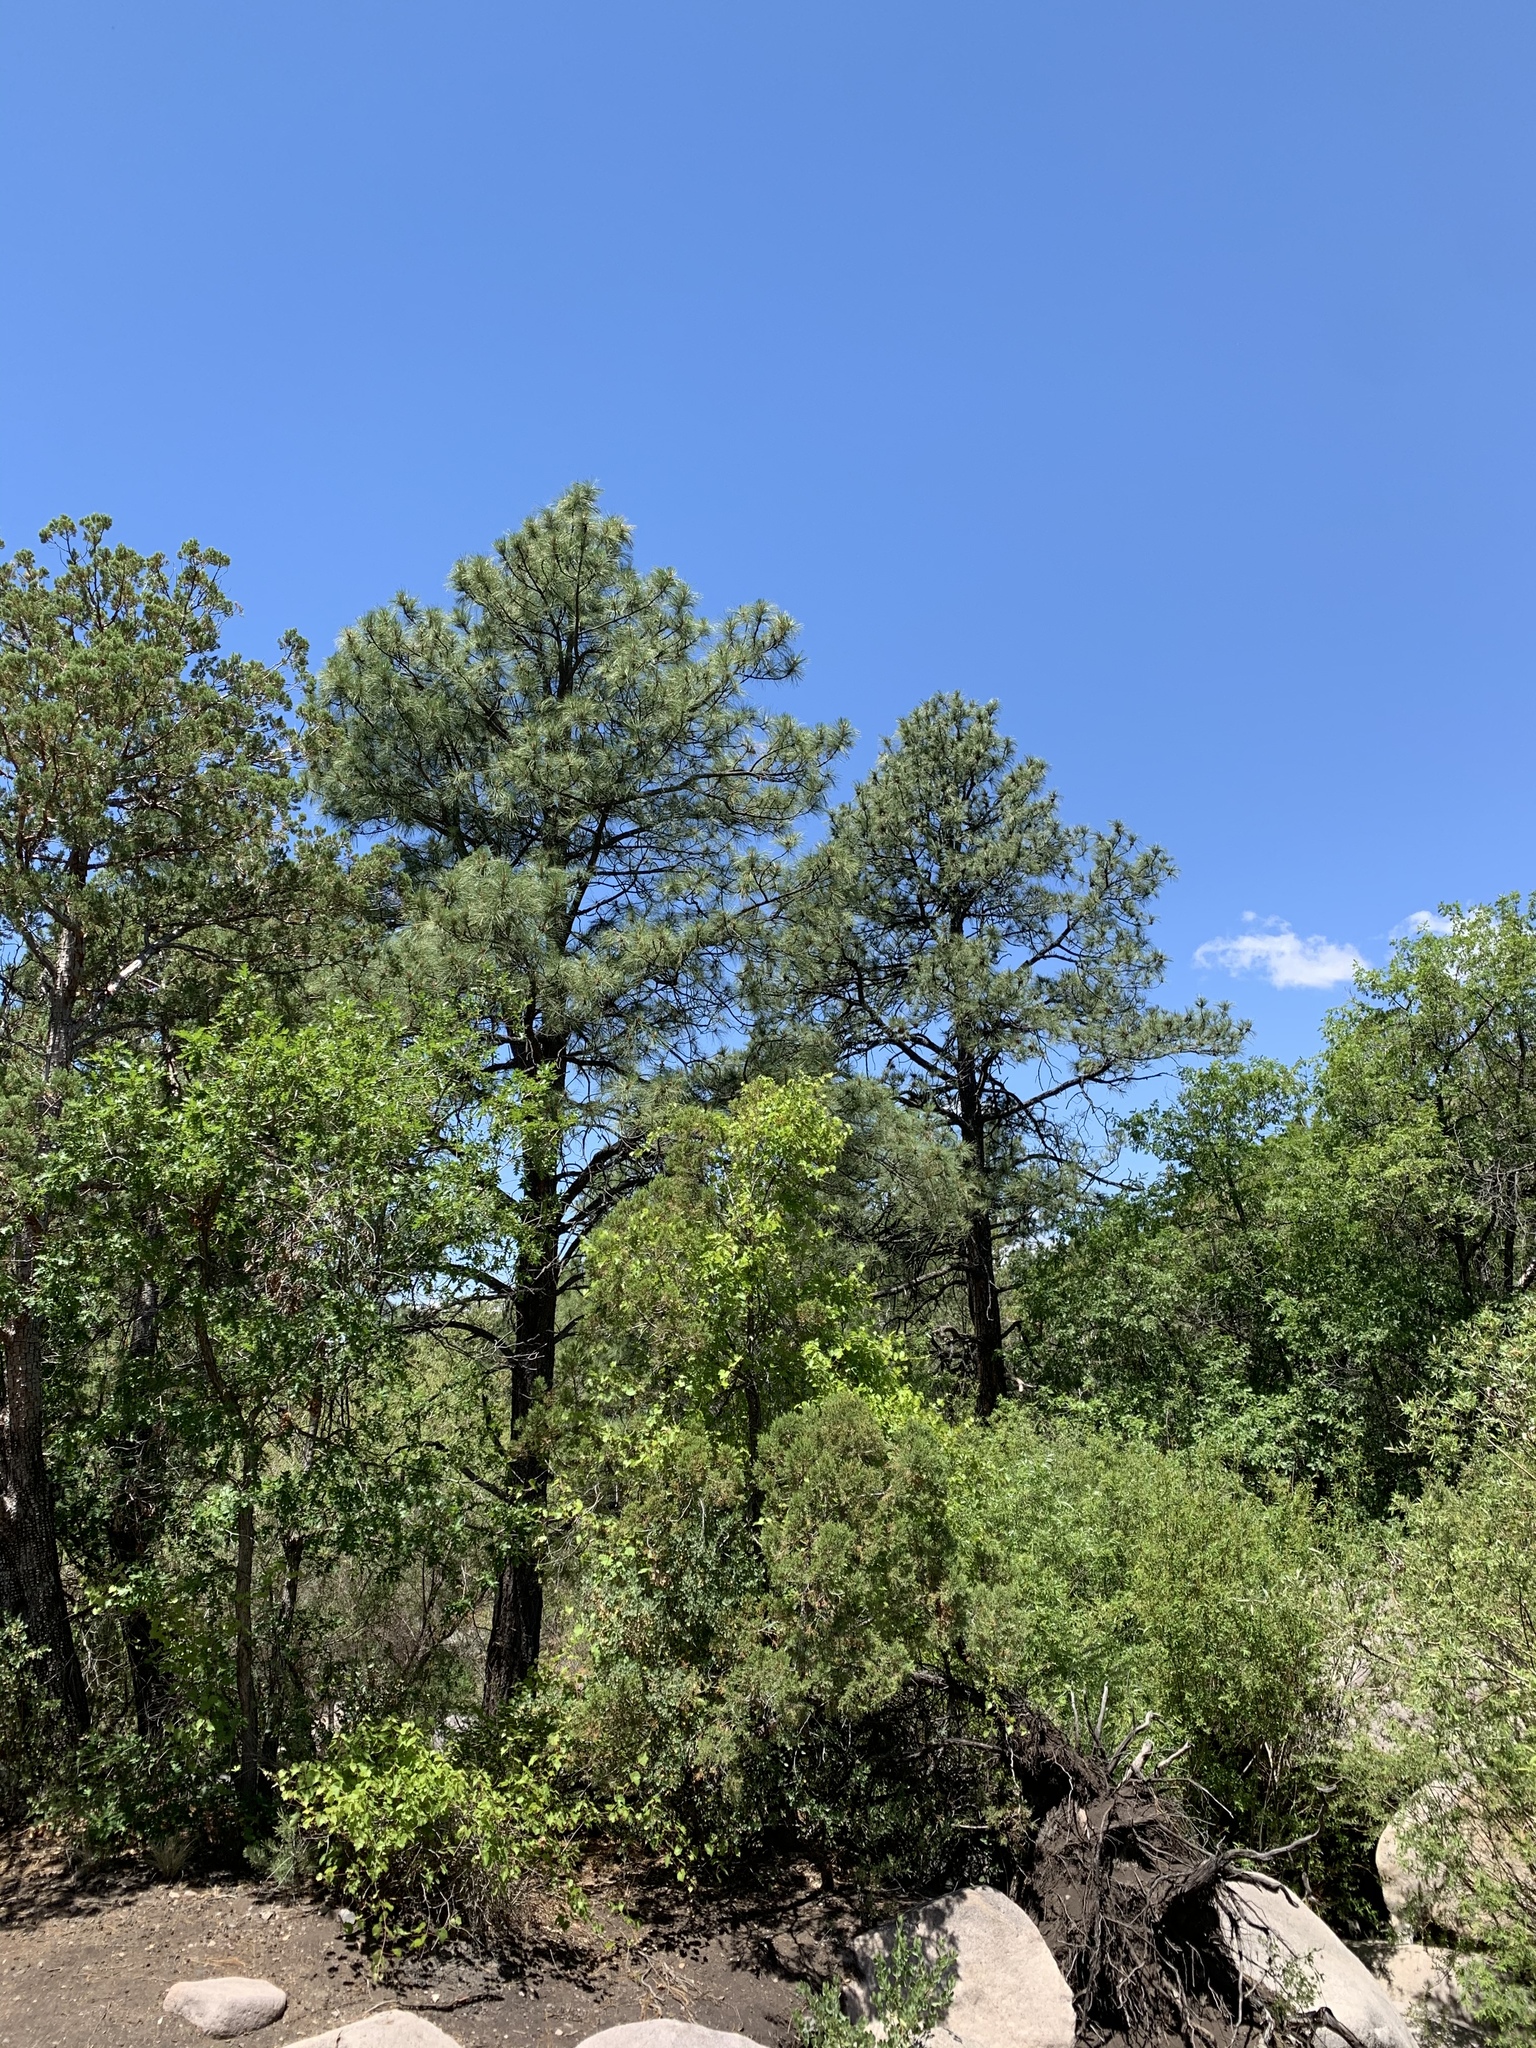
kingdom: Plantae
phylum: Tracheophyta
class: Pinopsida
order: Pinales
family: Pinaceae
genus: Pinus
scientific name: Pinus ponderosa
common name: Western yellow-pine
